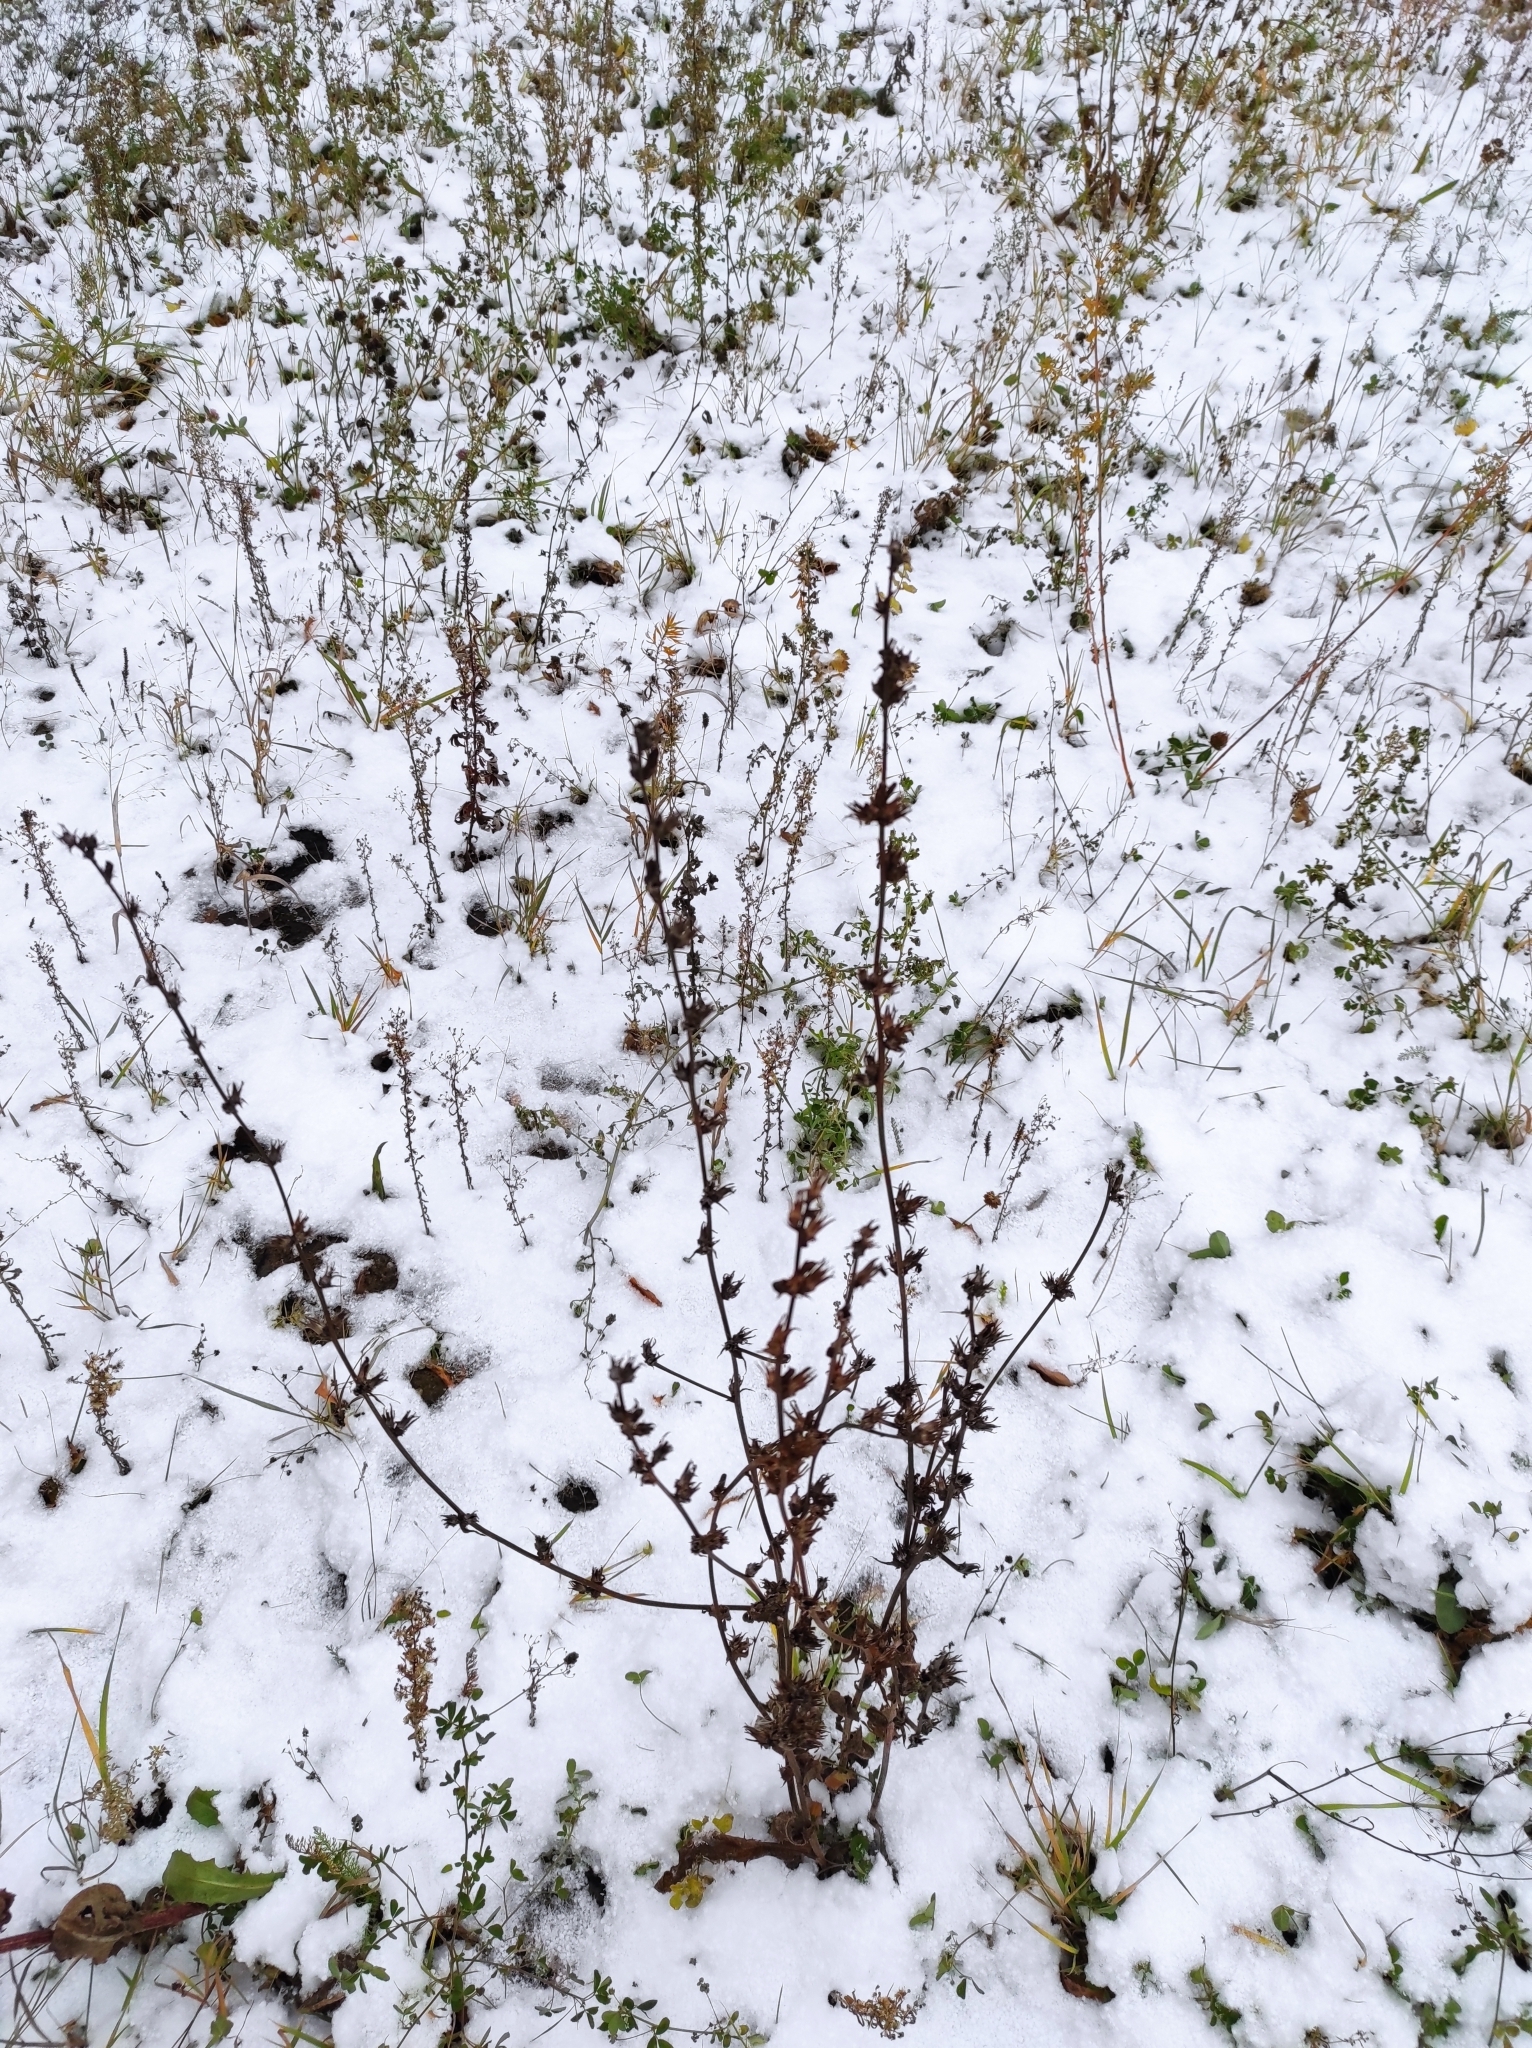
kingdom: Plantae
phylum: Tracheophyta
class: Magnoliopsida
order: Asterales
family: Asteraceae
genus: Cichorium
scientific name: Cichorium intybus
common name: Chicory
